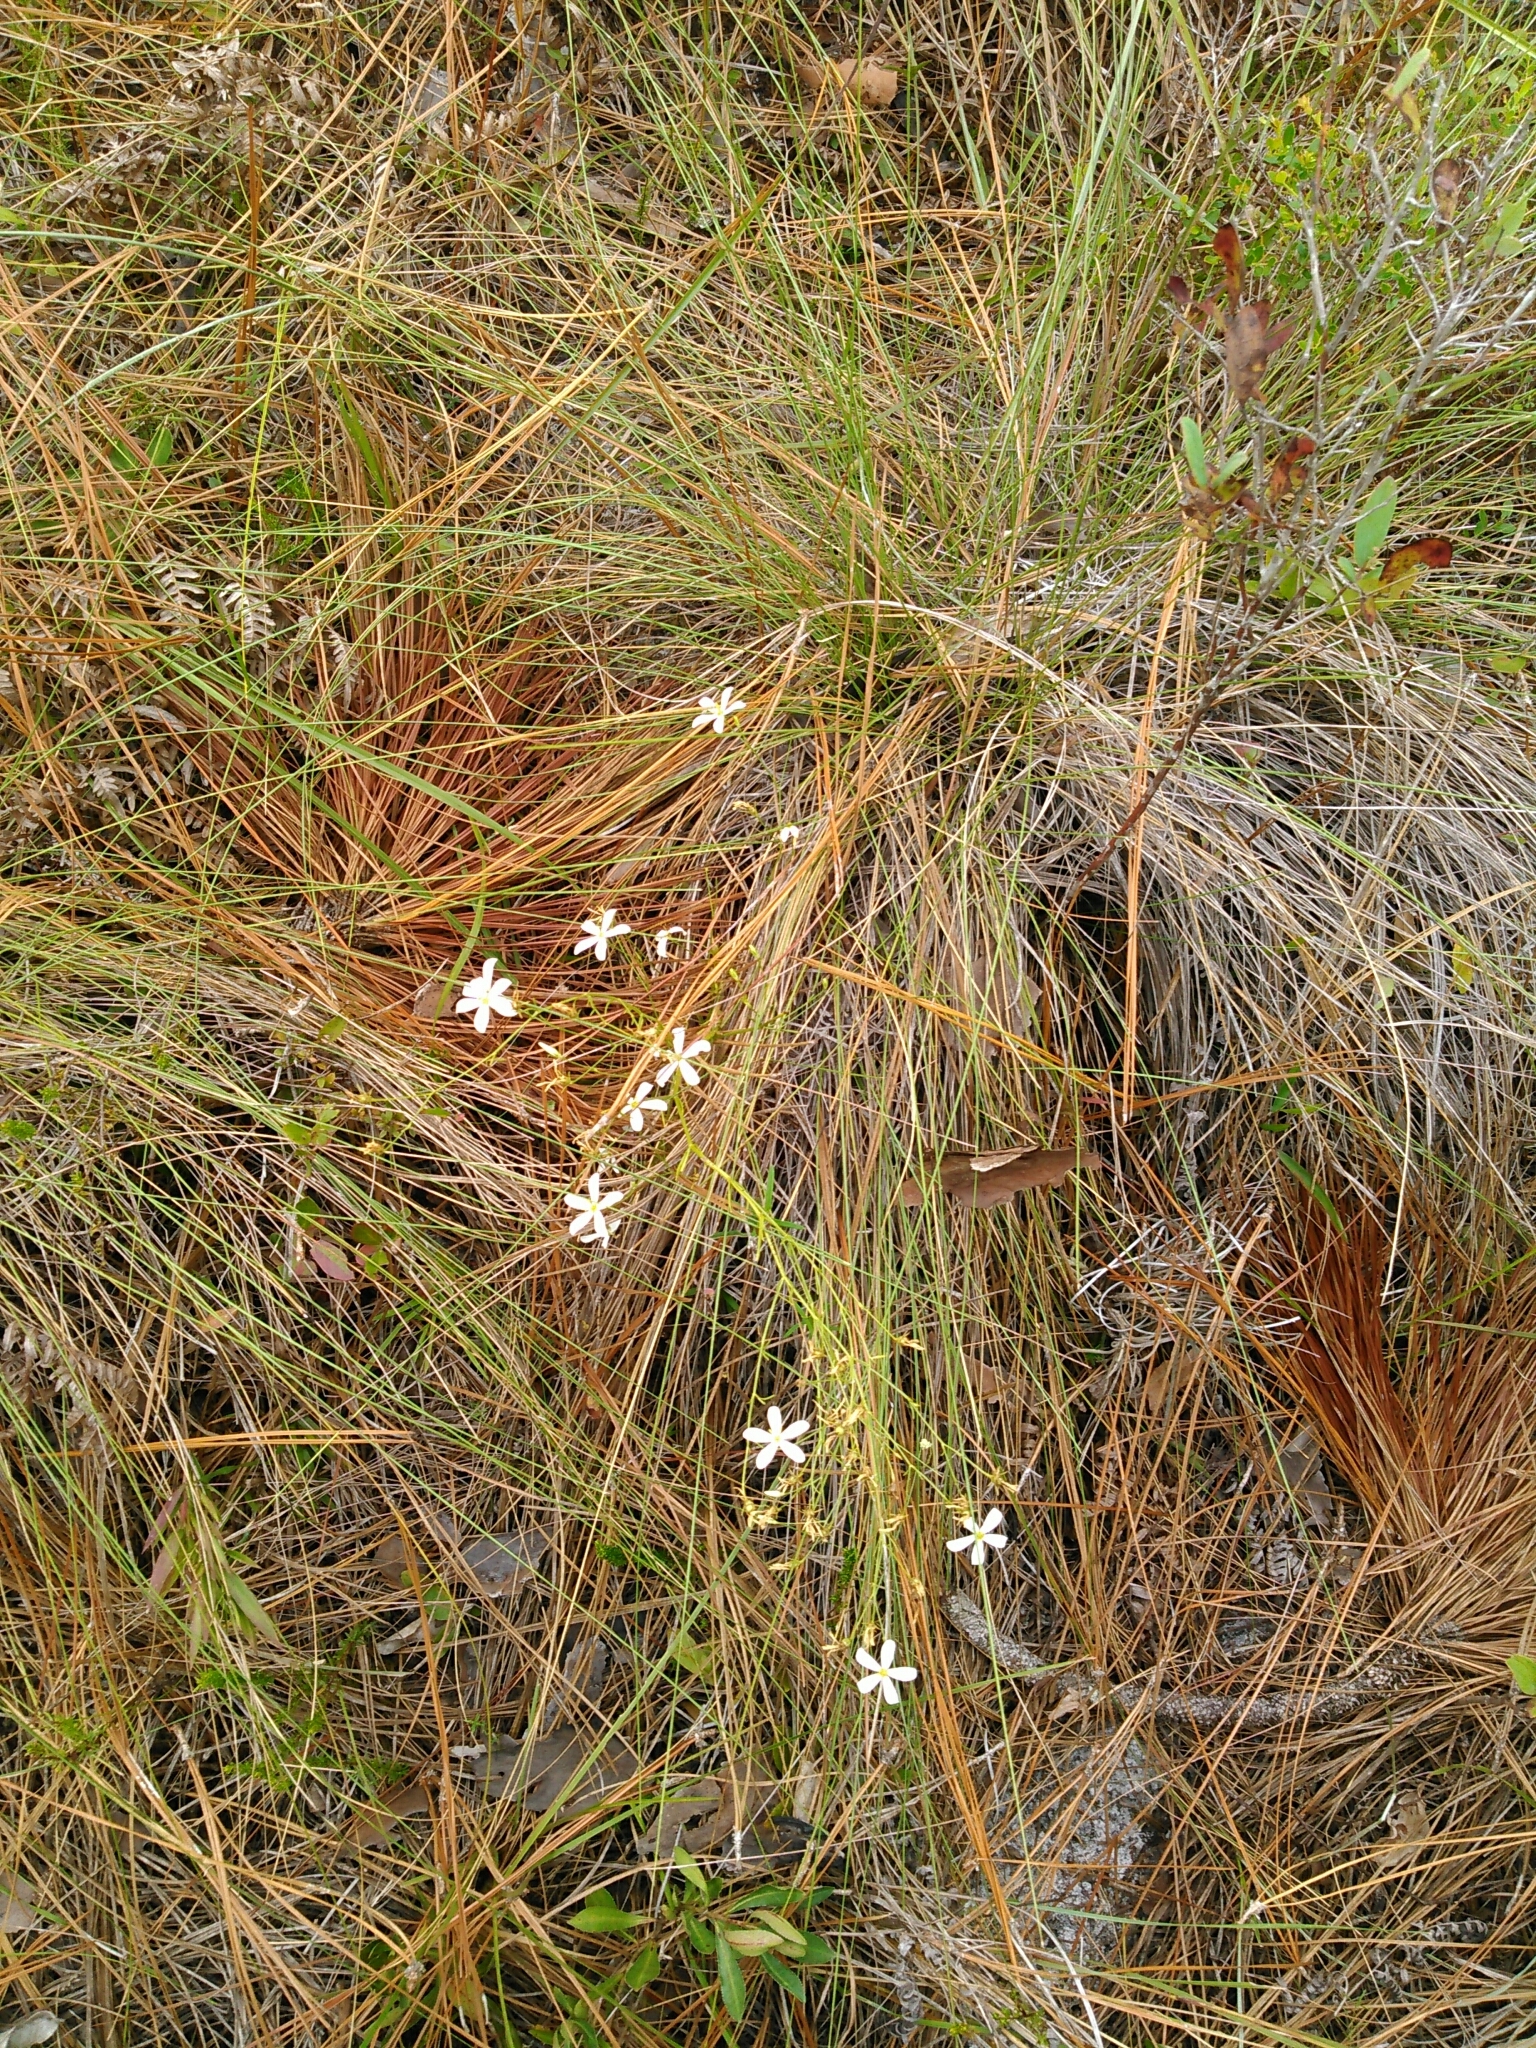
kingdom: Plantae
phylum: Tracheophyta
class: Magnoliopsida
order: Gentianales
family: Gentianaceae
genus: Sabatia
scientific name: Sabatia brevifolia
